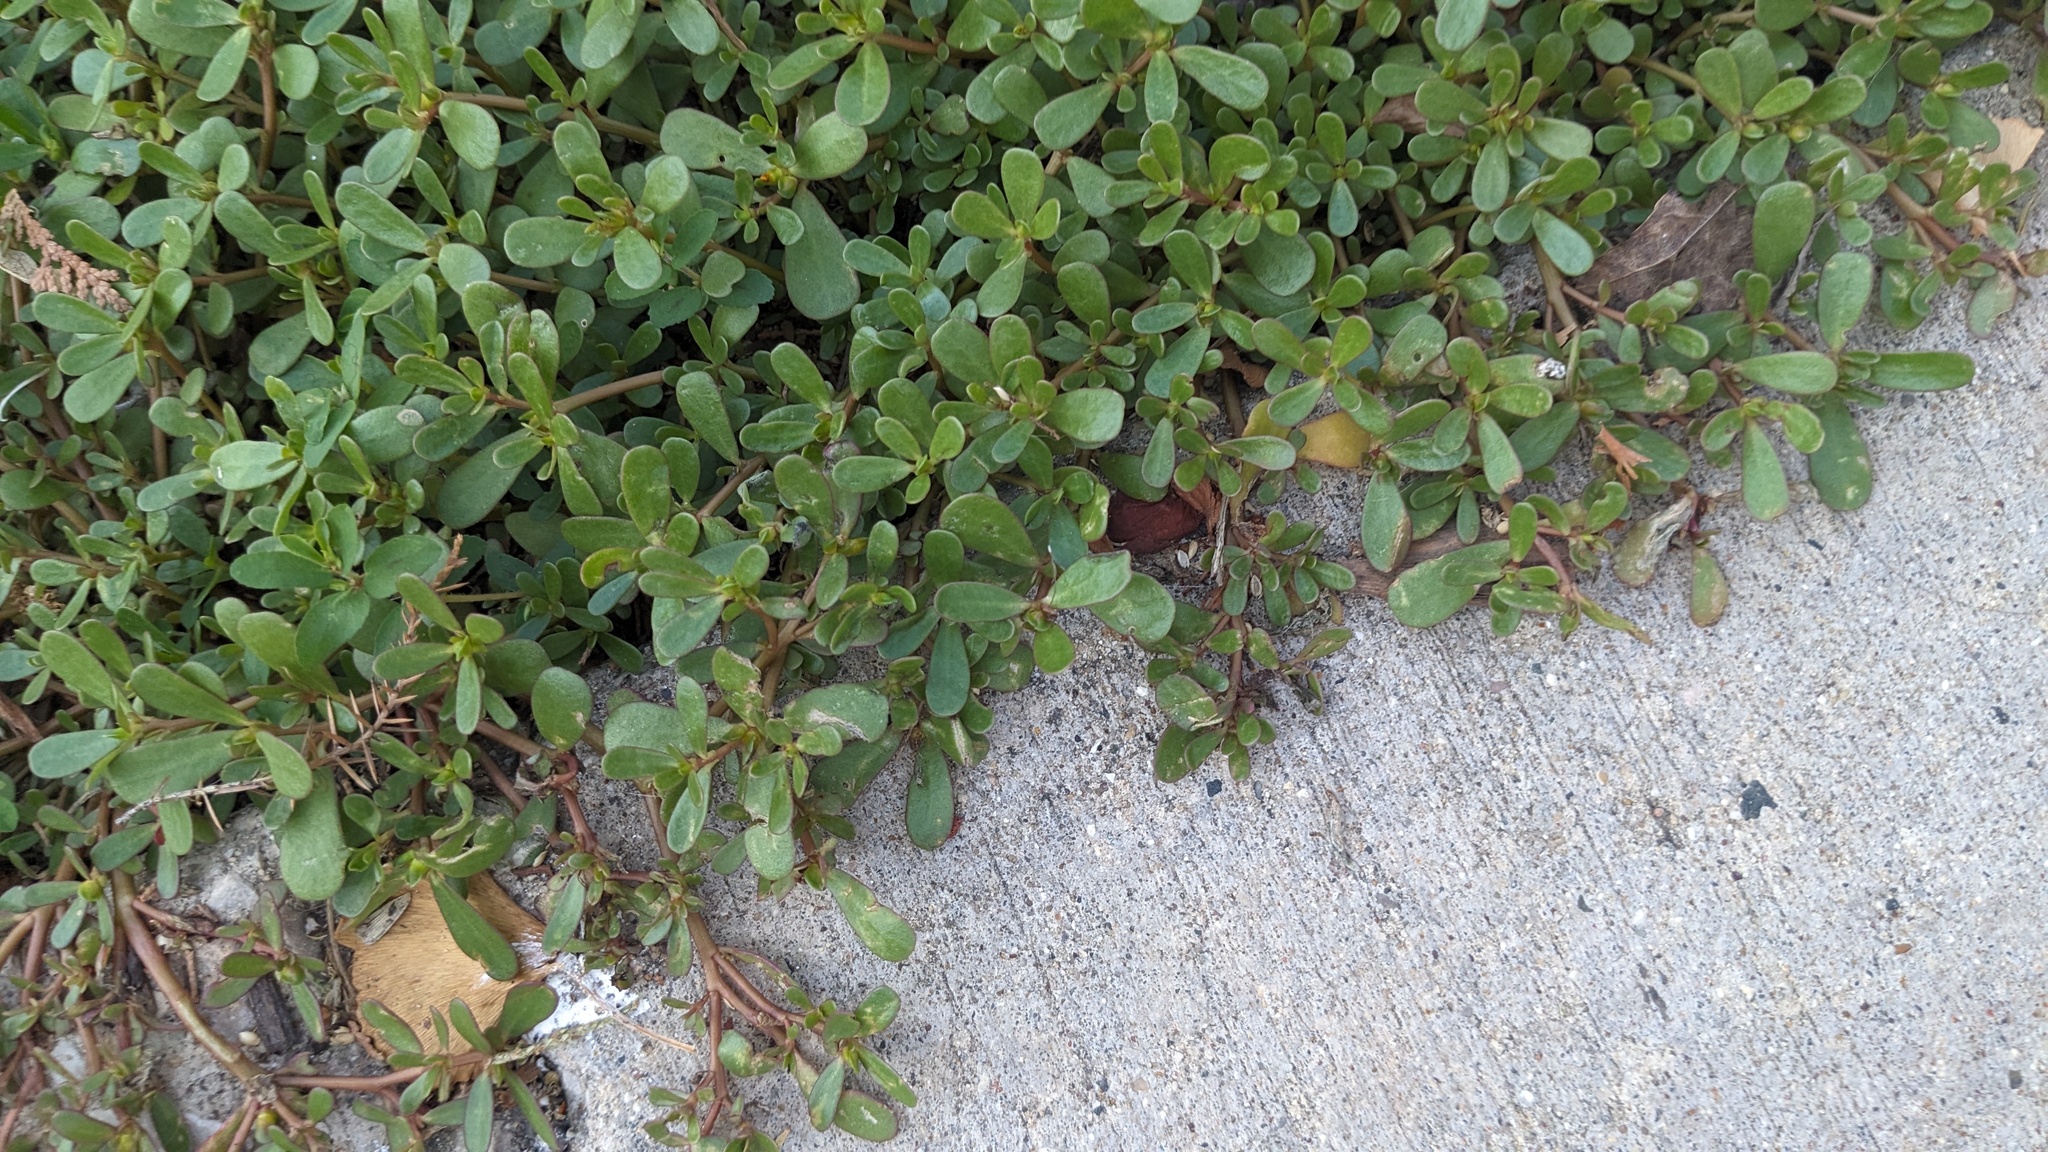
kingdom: Plantae
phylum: Tracheophyta
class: Magnoliopsida
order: Caryophyllales
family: Portulacaceae
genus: Portulaca
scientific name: Portulaca oleracea
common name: Common purslane
